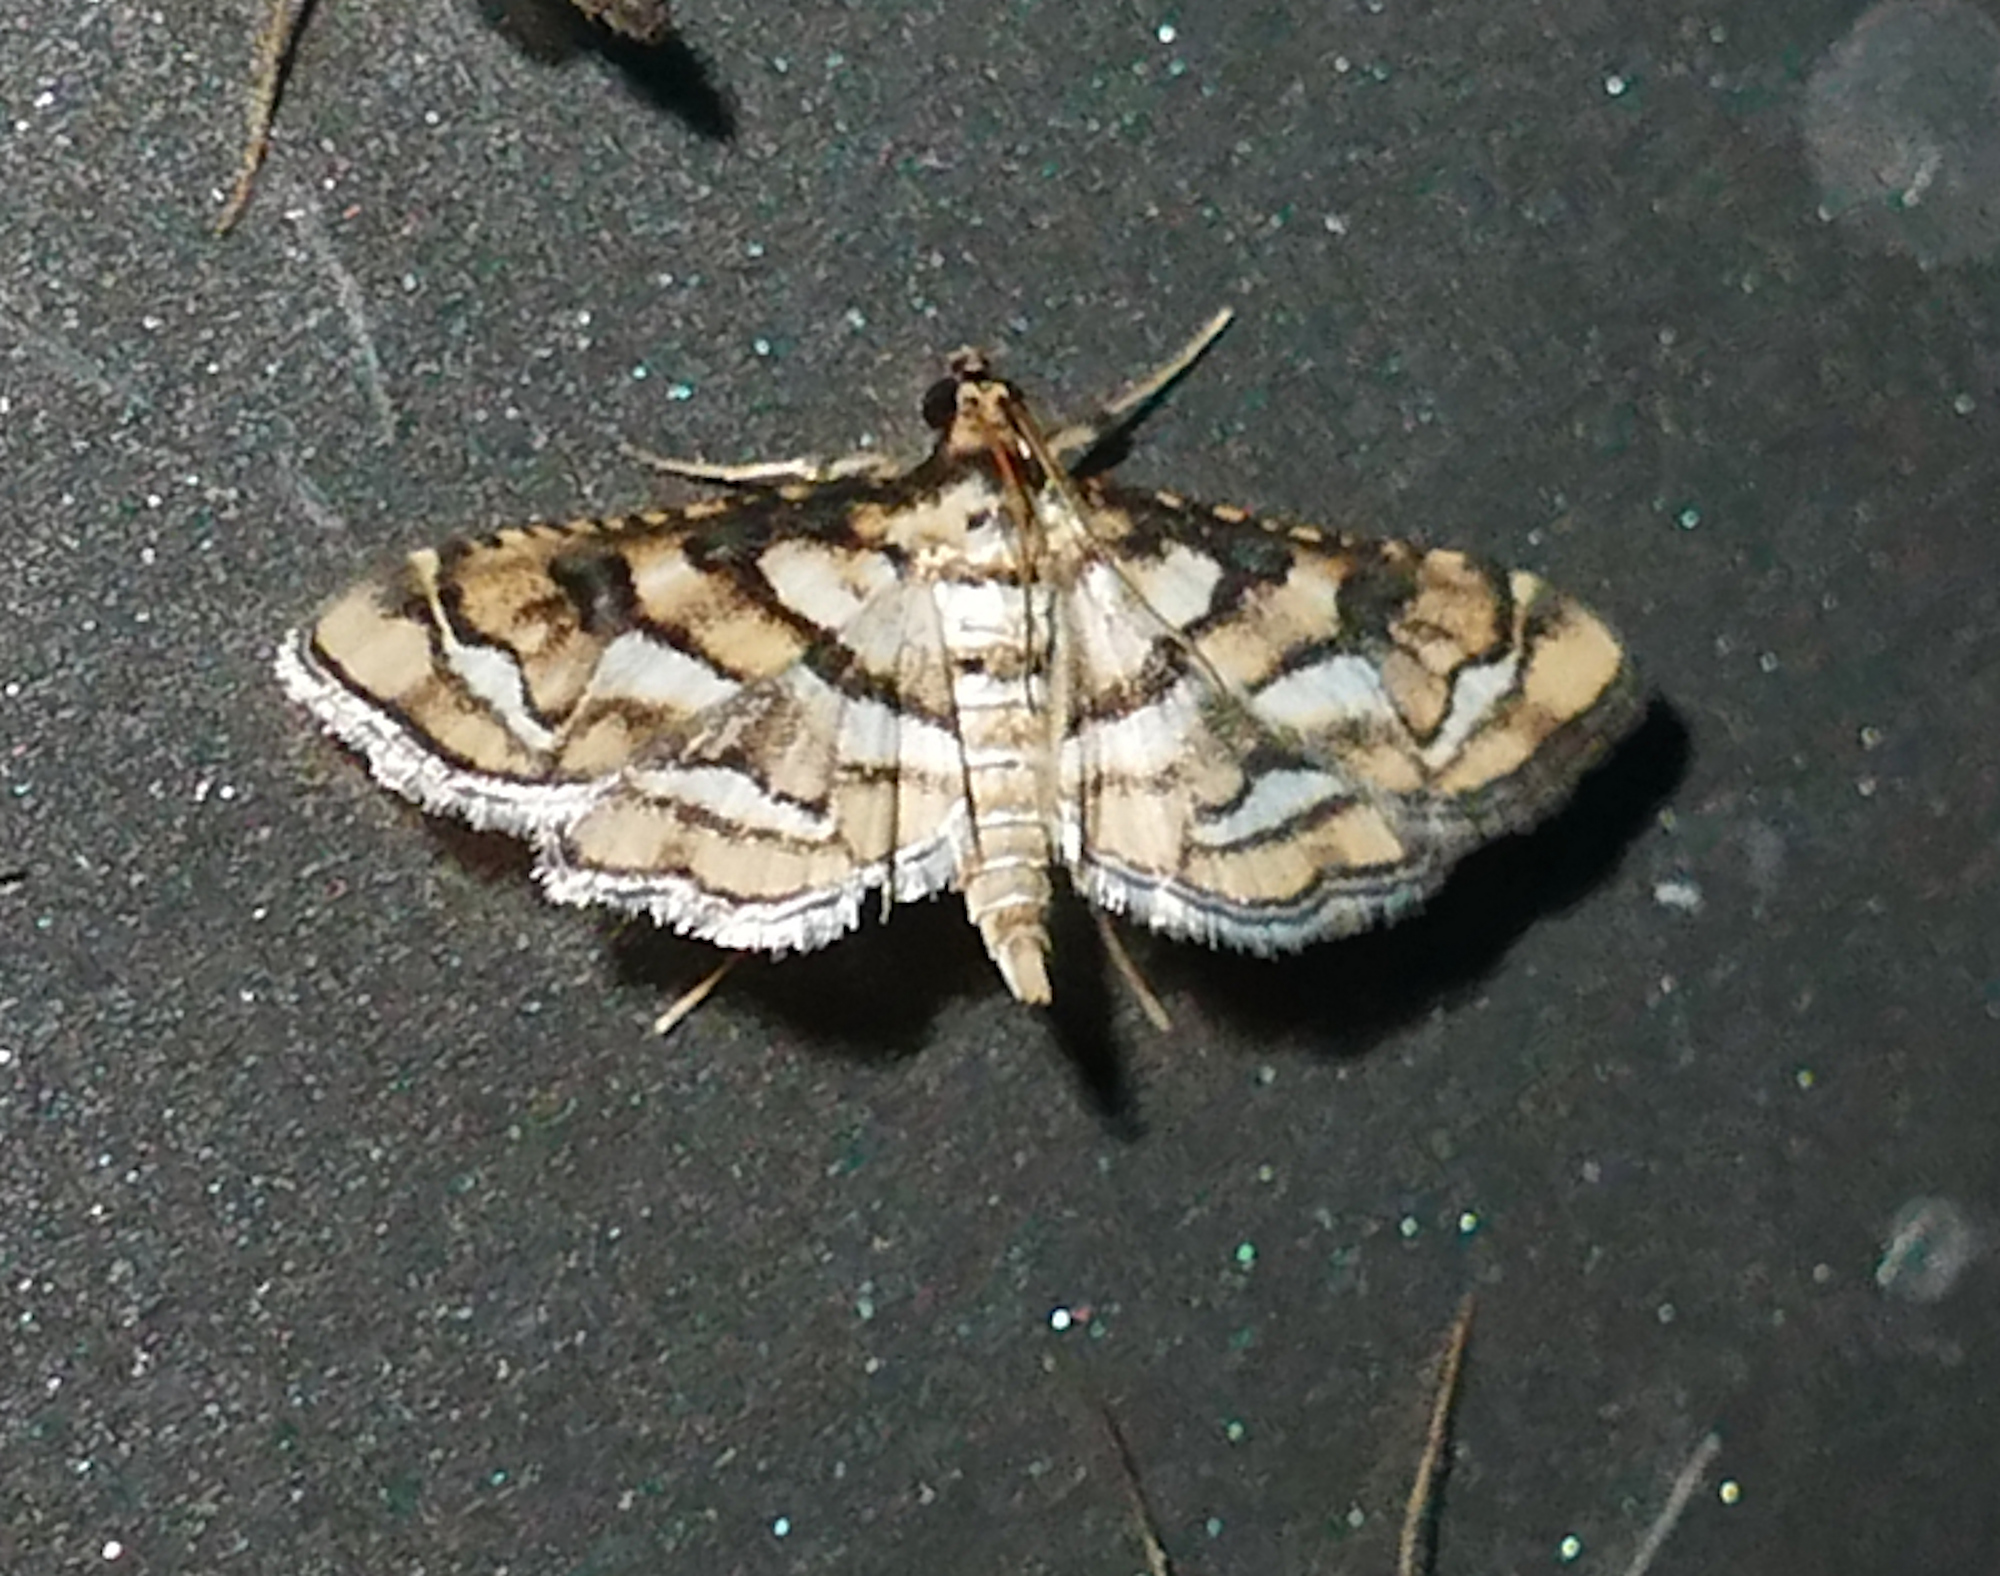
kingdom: Animalia
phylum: Arthropoda
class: Insecta
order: Lepidoptera
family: Crambidae
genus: Hileithia
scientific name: Hileithia magualis
